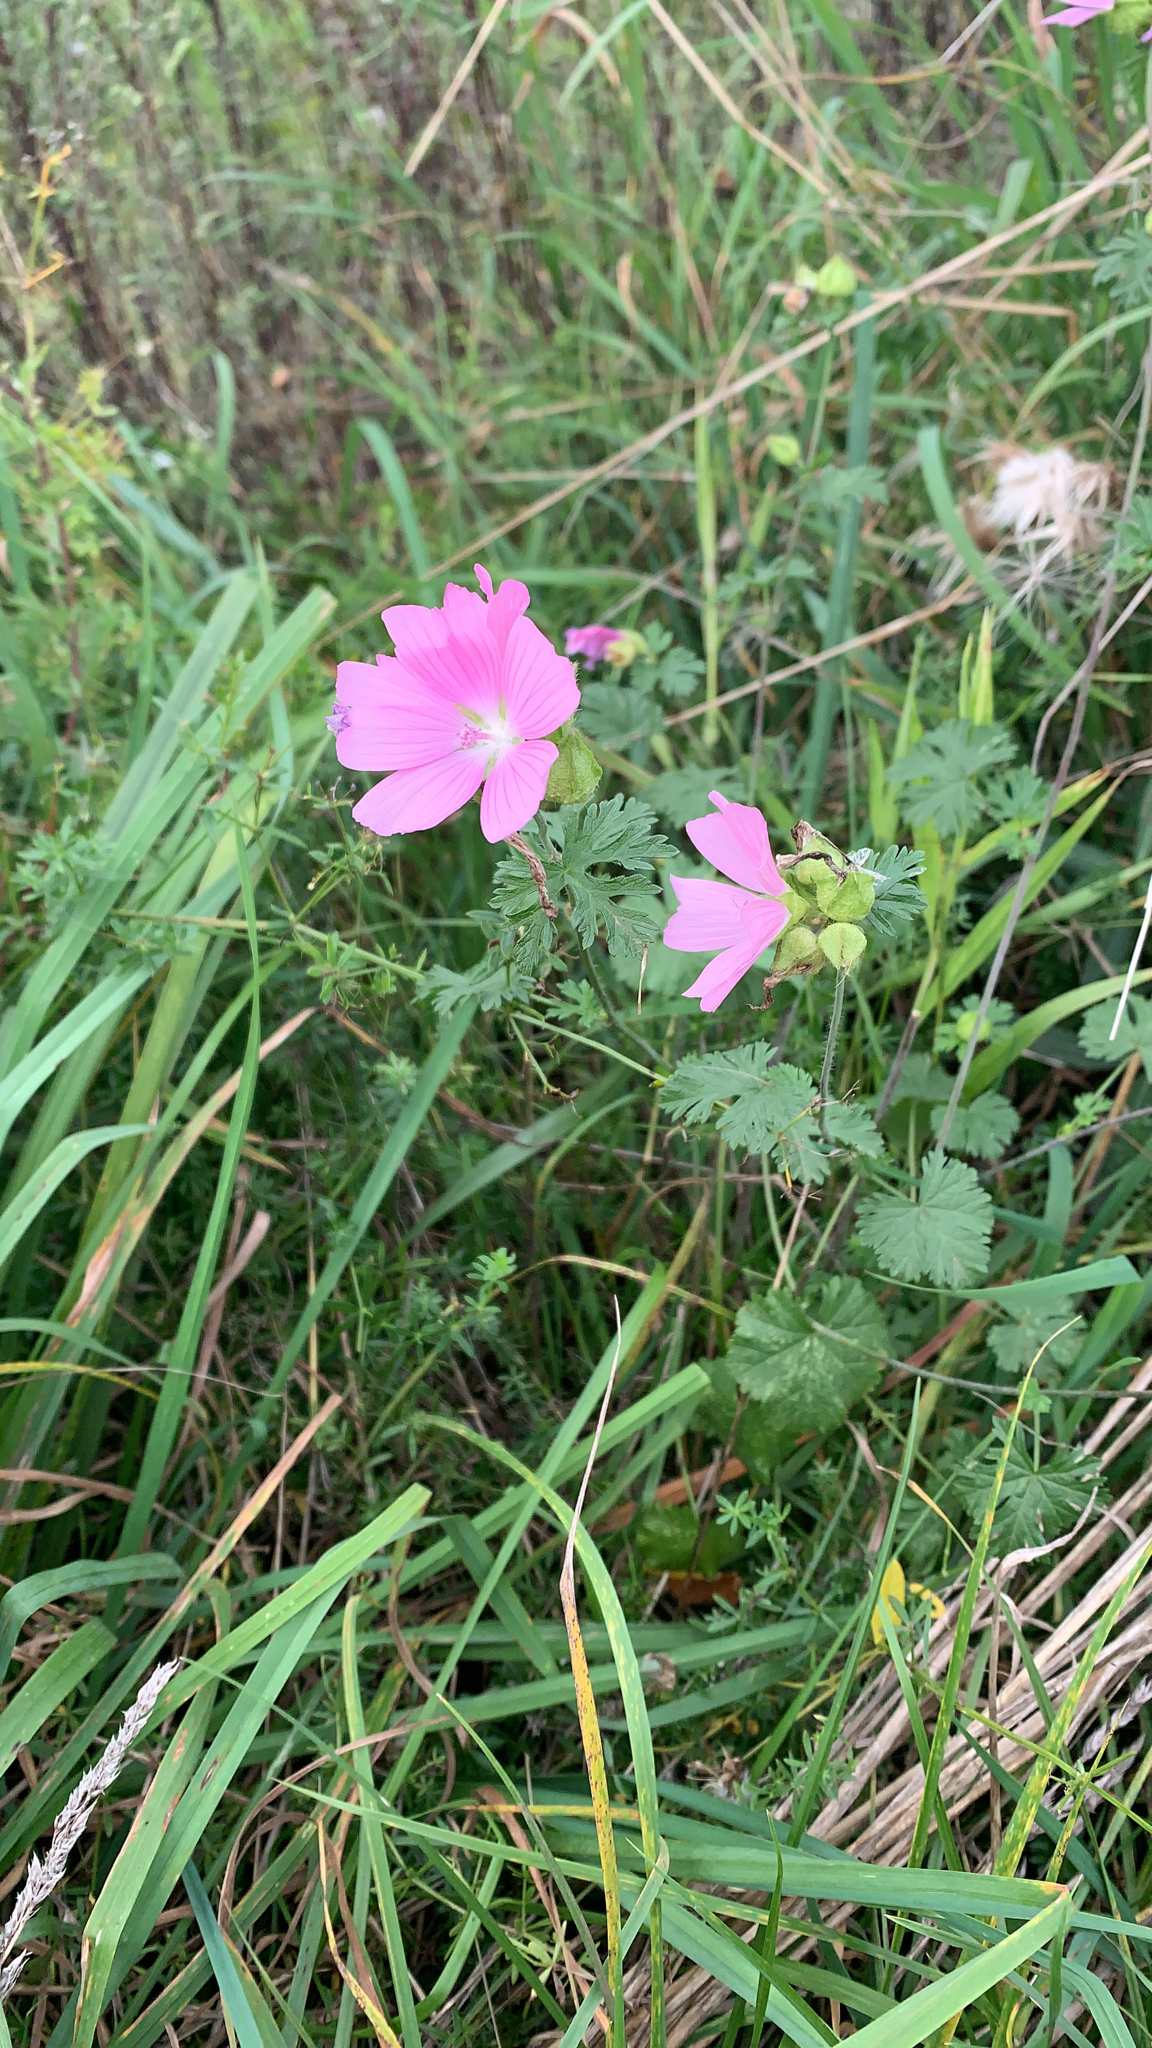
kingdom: Plantae
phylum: Tracheophyta
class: Magnoliopsida
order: Malvales
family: Malvaceae
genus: Malva
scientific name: Malva moschata
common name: Musk mallow
